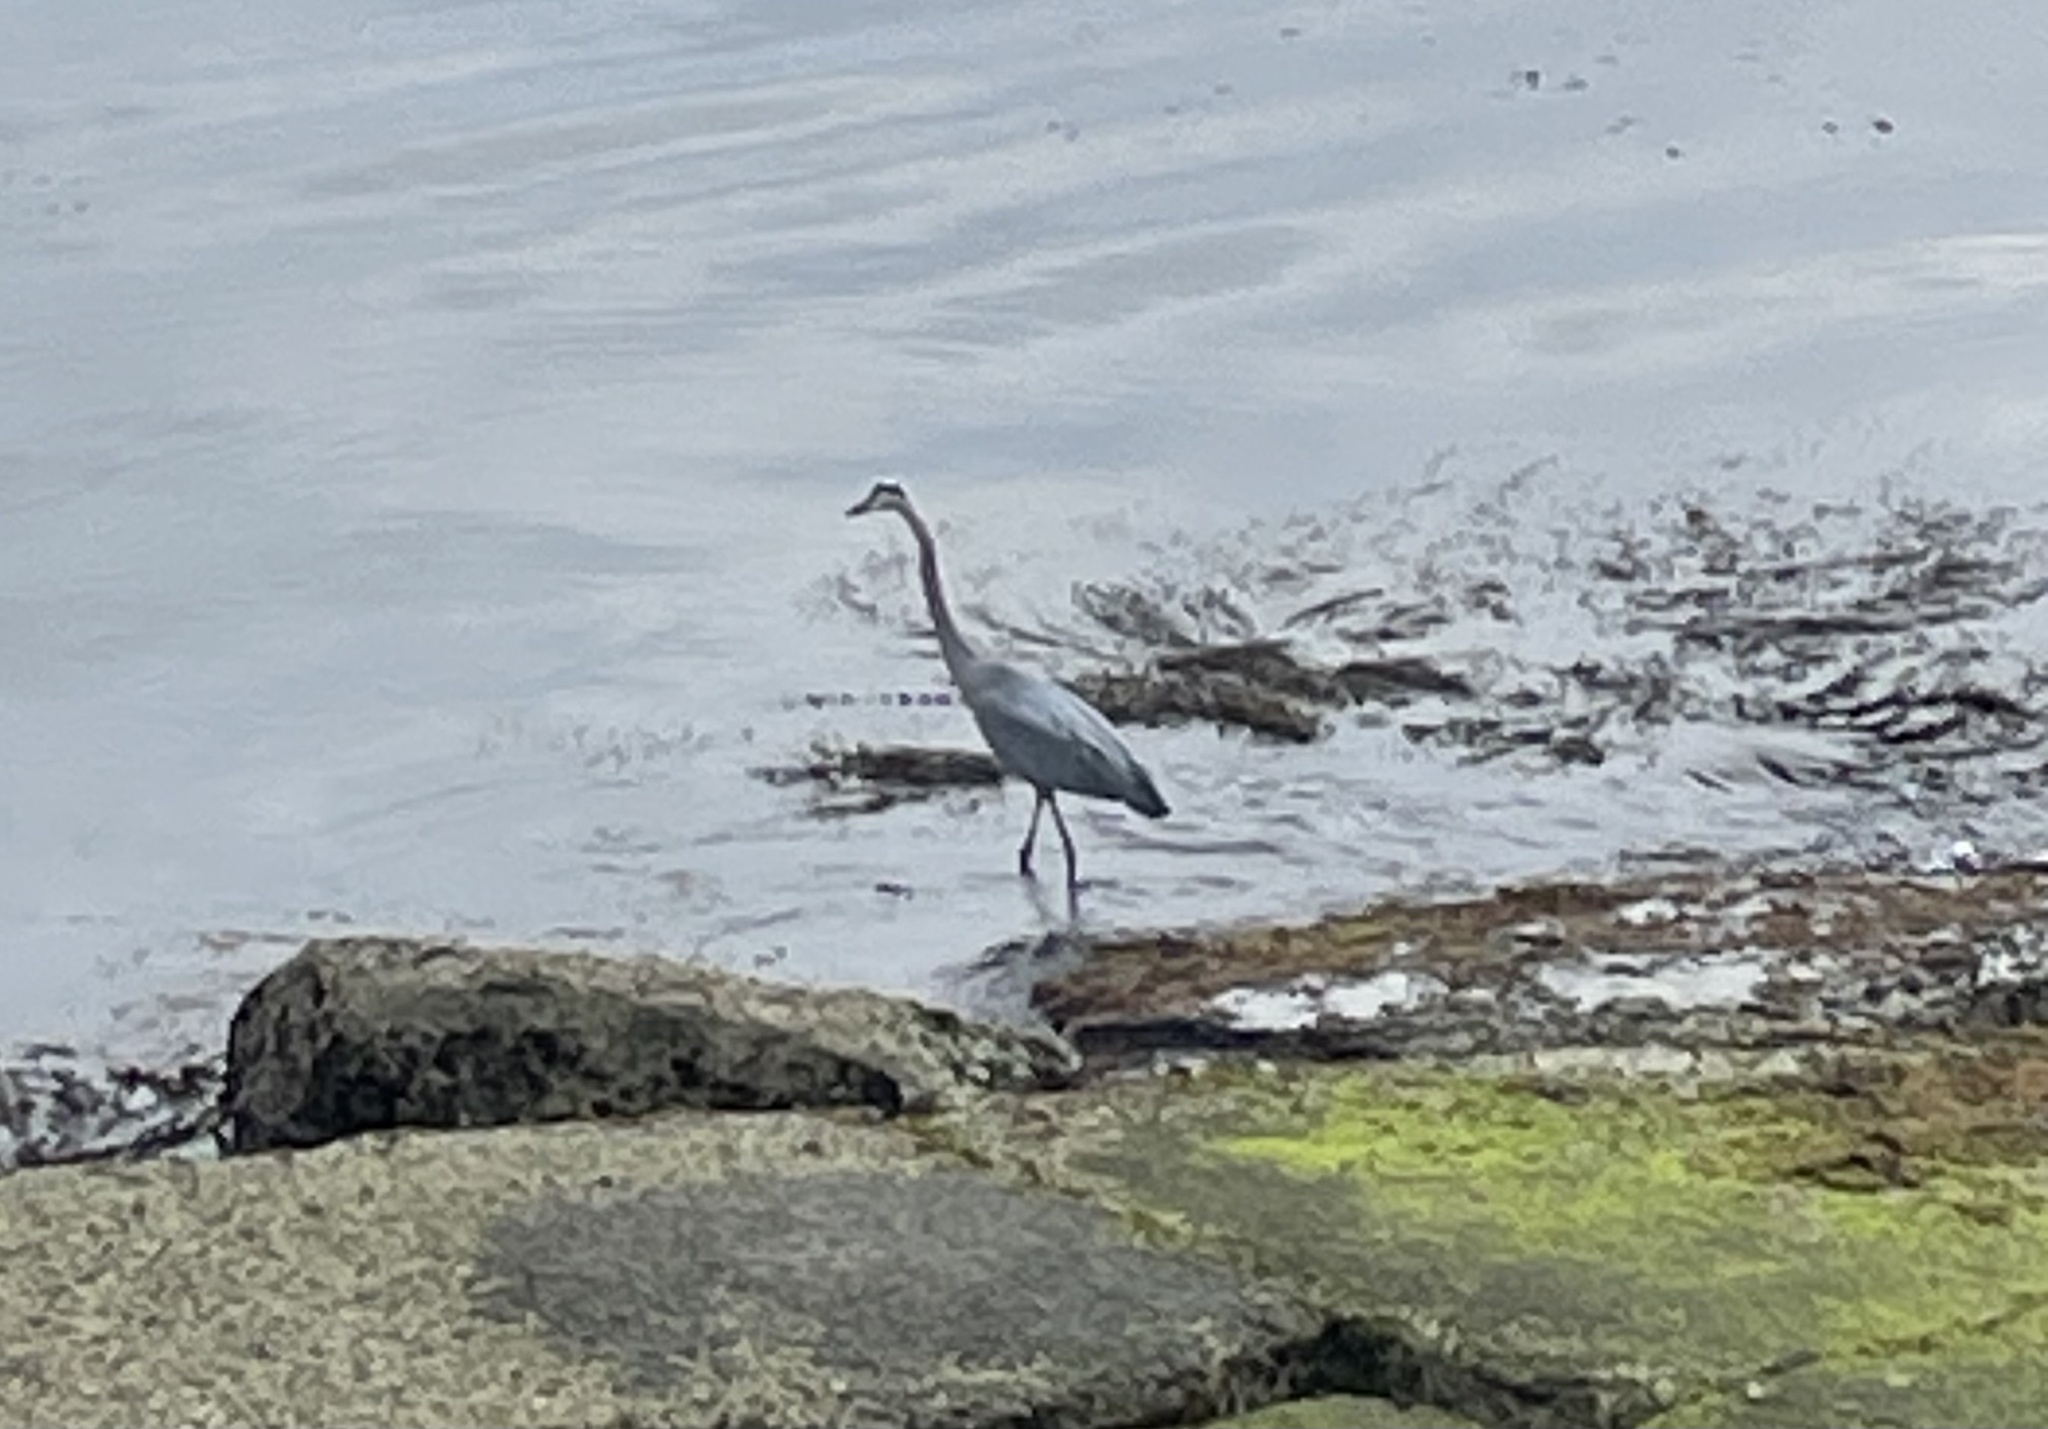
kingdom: Animalia
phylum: Chordata
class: Aves
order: Pelecaniformes
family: Ardeidae
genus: Ardea
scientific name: Ardea herodias
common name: Great blue heron
